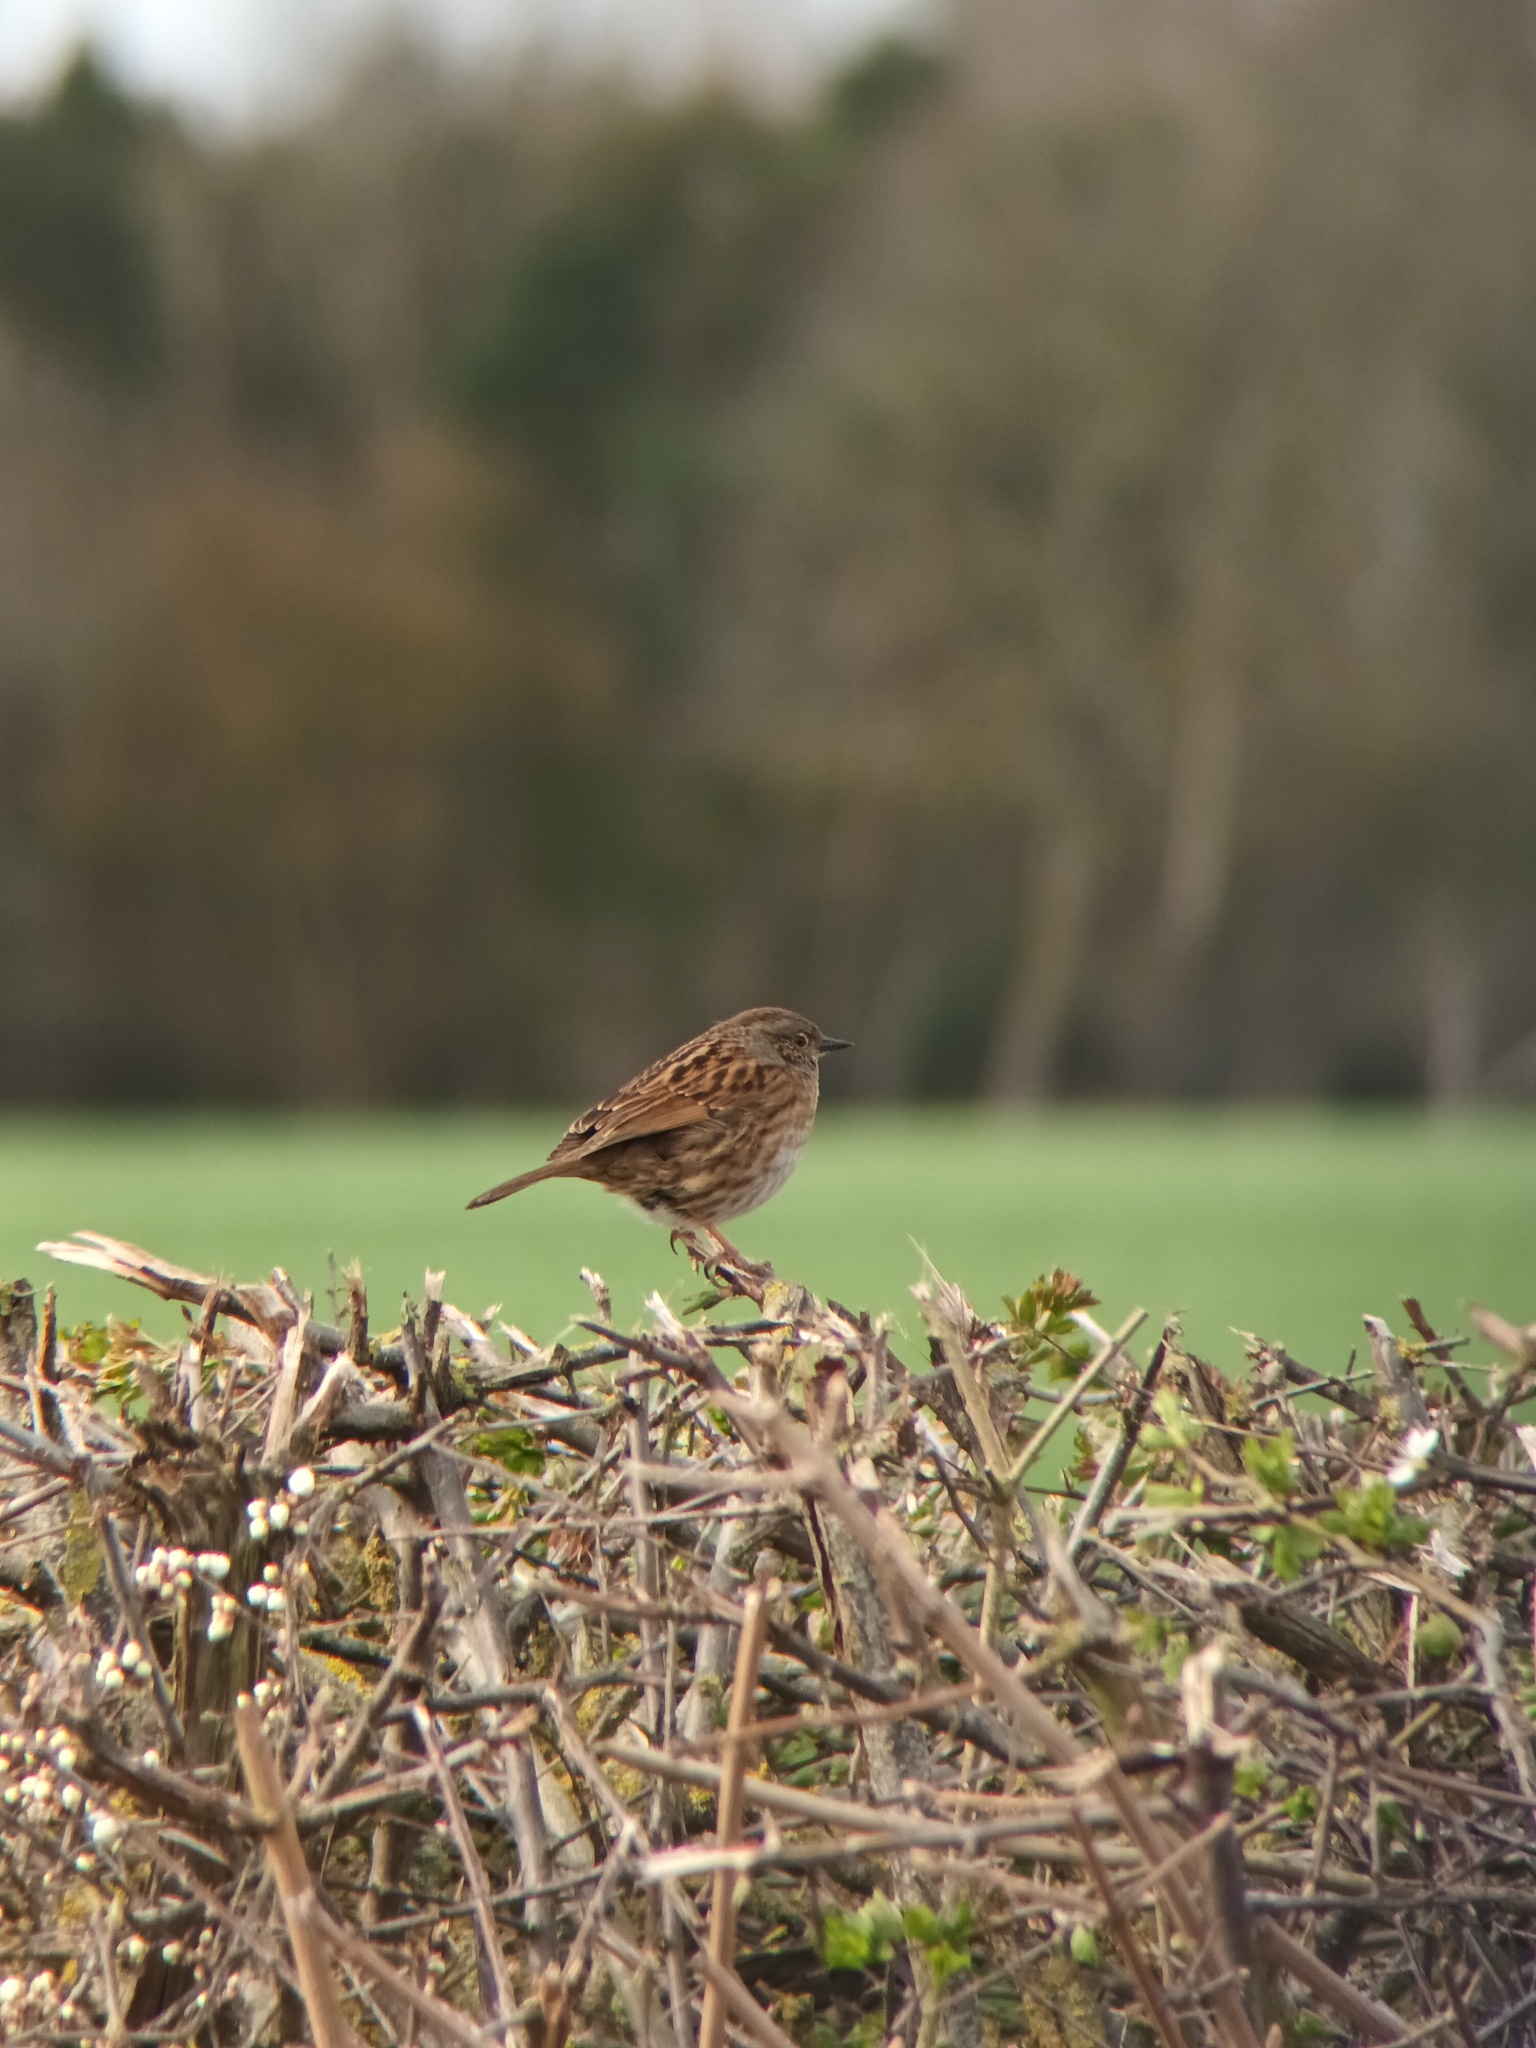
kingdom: Animalia
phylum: Chordata
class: Aves
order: Passeriformes
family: Prunellidae
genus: Prunella
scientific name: Prunella modularis
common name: Dunnock
